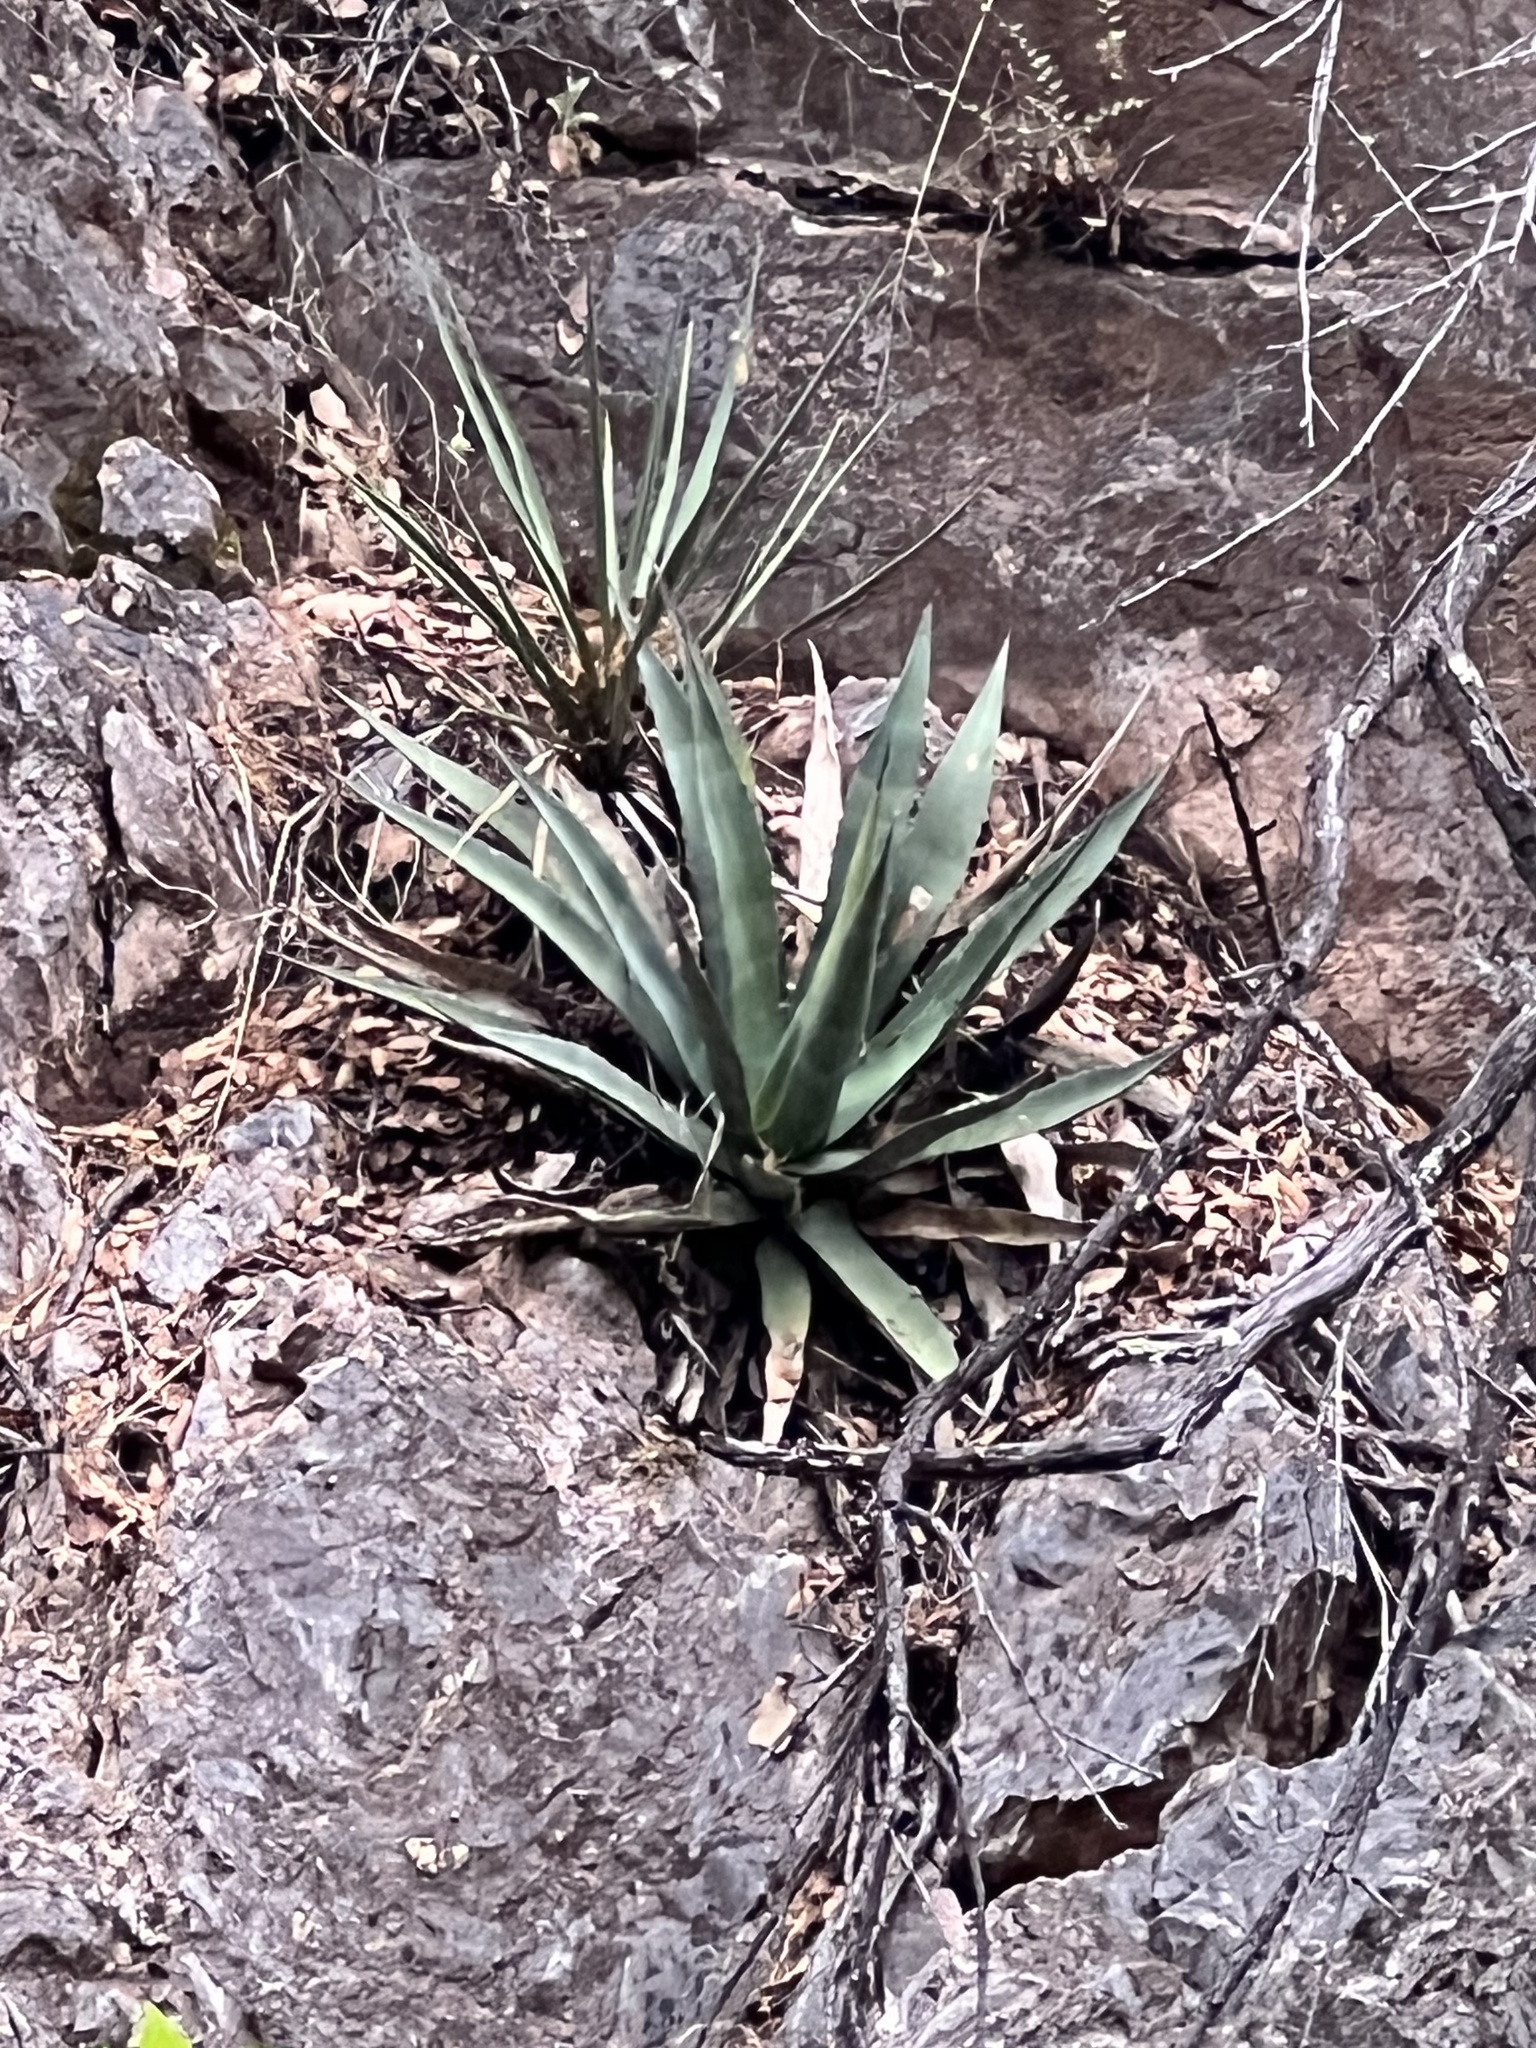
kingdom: Plantae
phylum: Tracheophyta
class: Liliopsida
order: Asparagales
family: Asparagaceae
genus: Agave
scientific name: Agave palmeri
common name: Palmer agave
